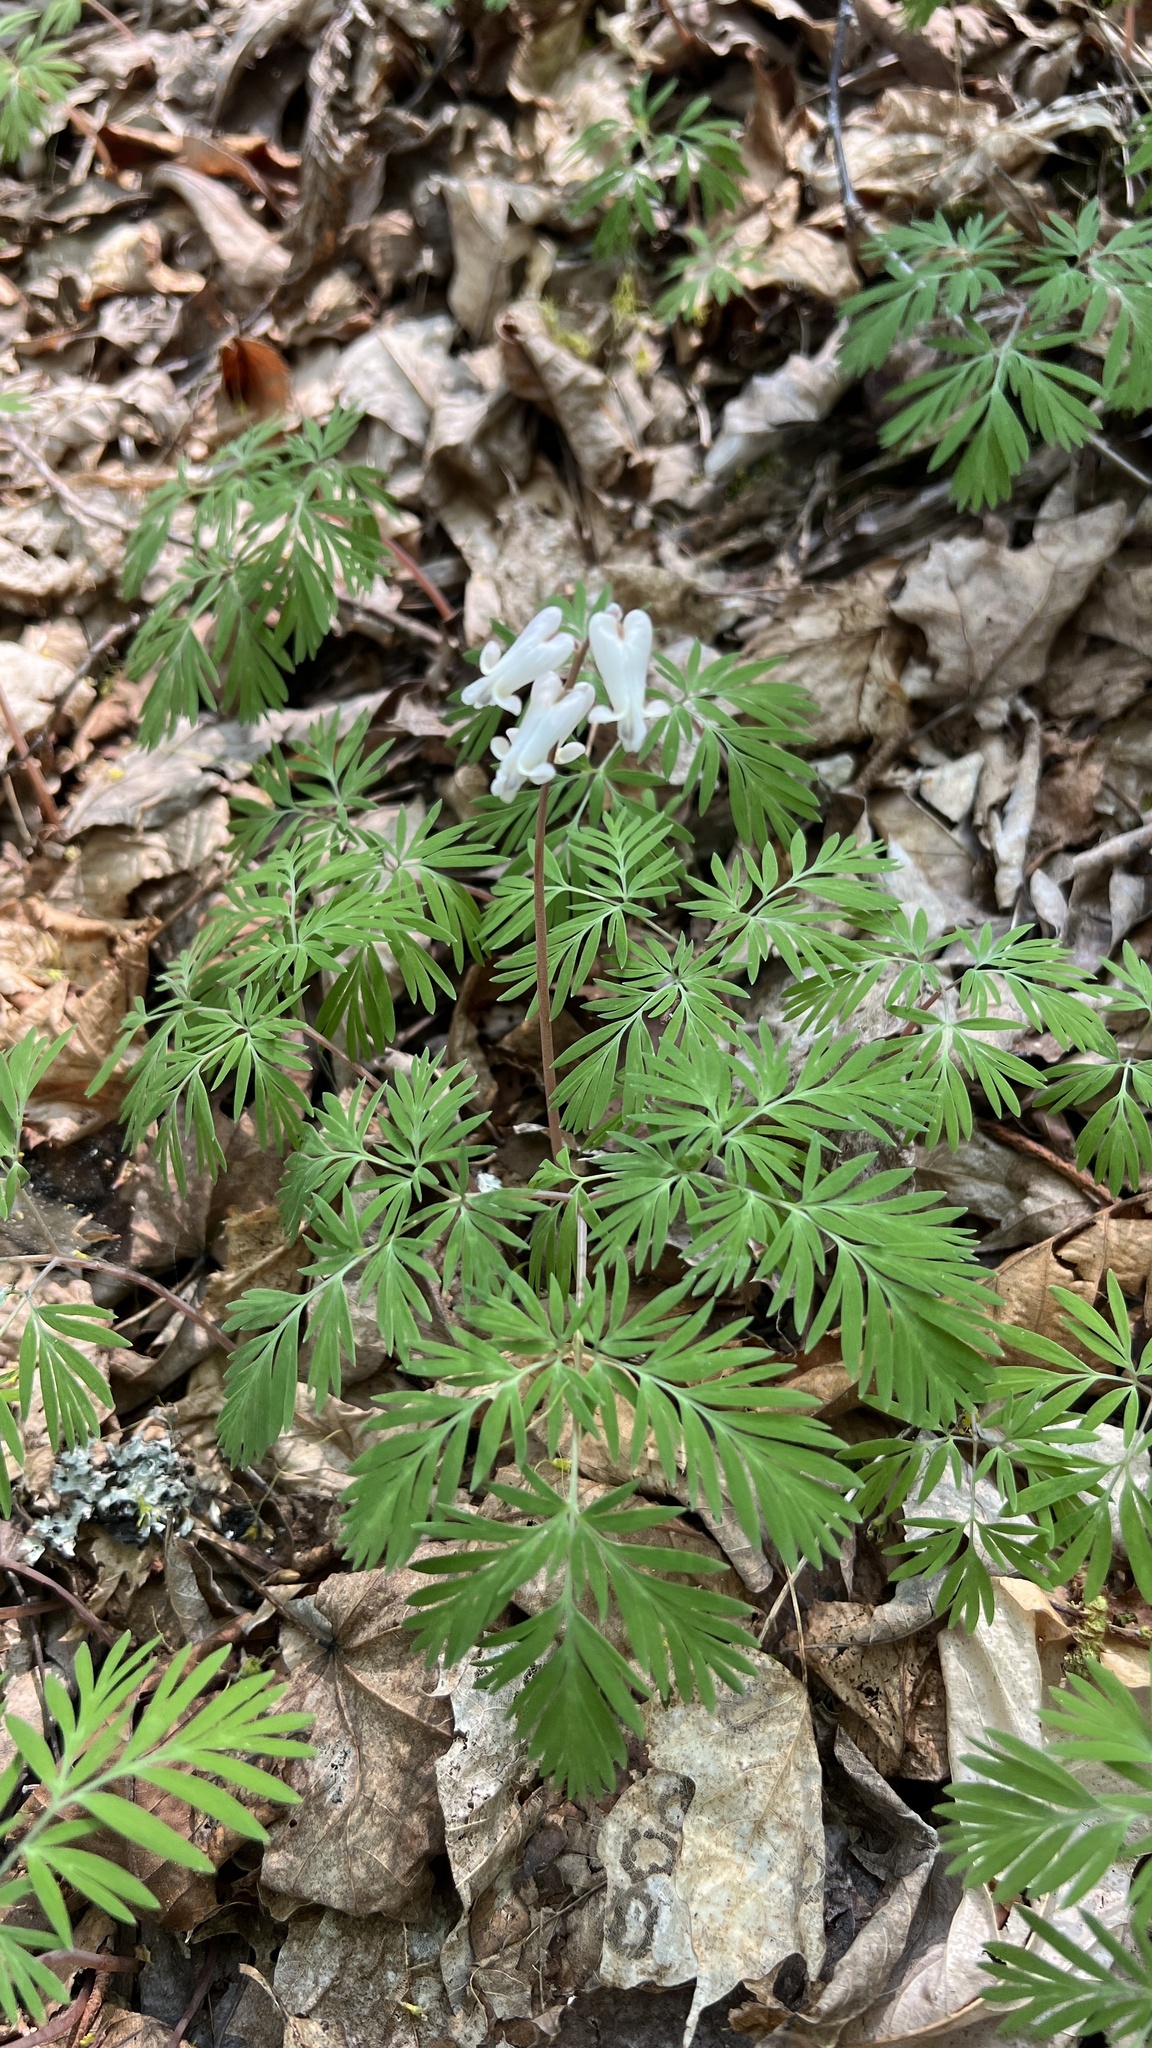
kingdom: Plantae
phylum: Tracheophyta
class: Magnoliopsida
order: Ranunculales
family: Papaveraceae
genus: Dicentra
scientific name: Dicentra canadensis
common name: Squirrel-corn
